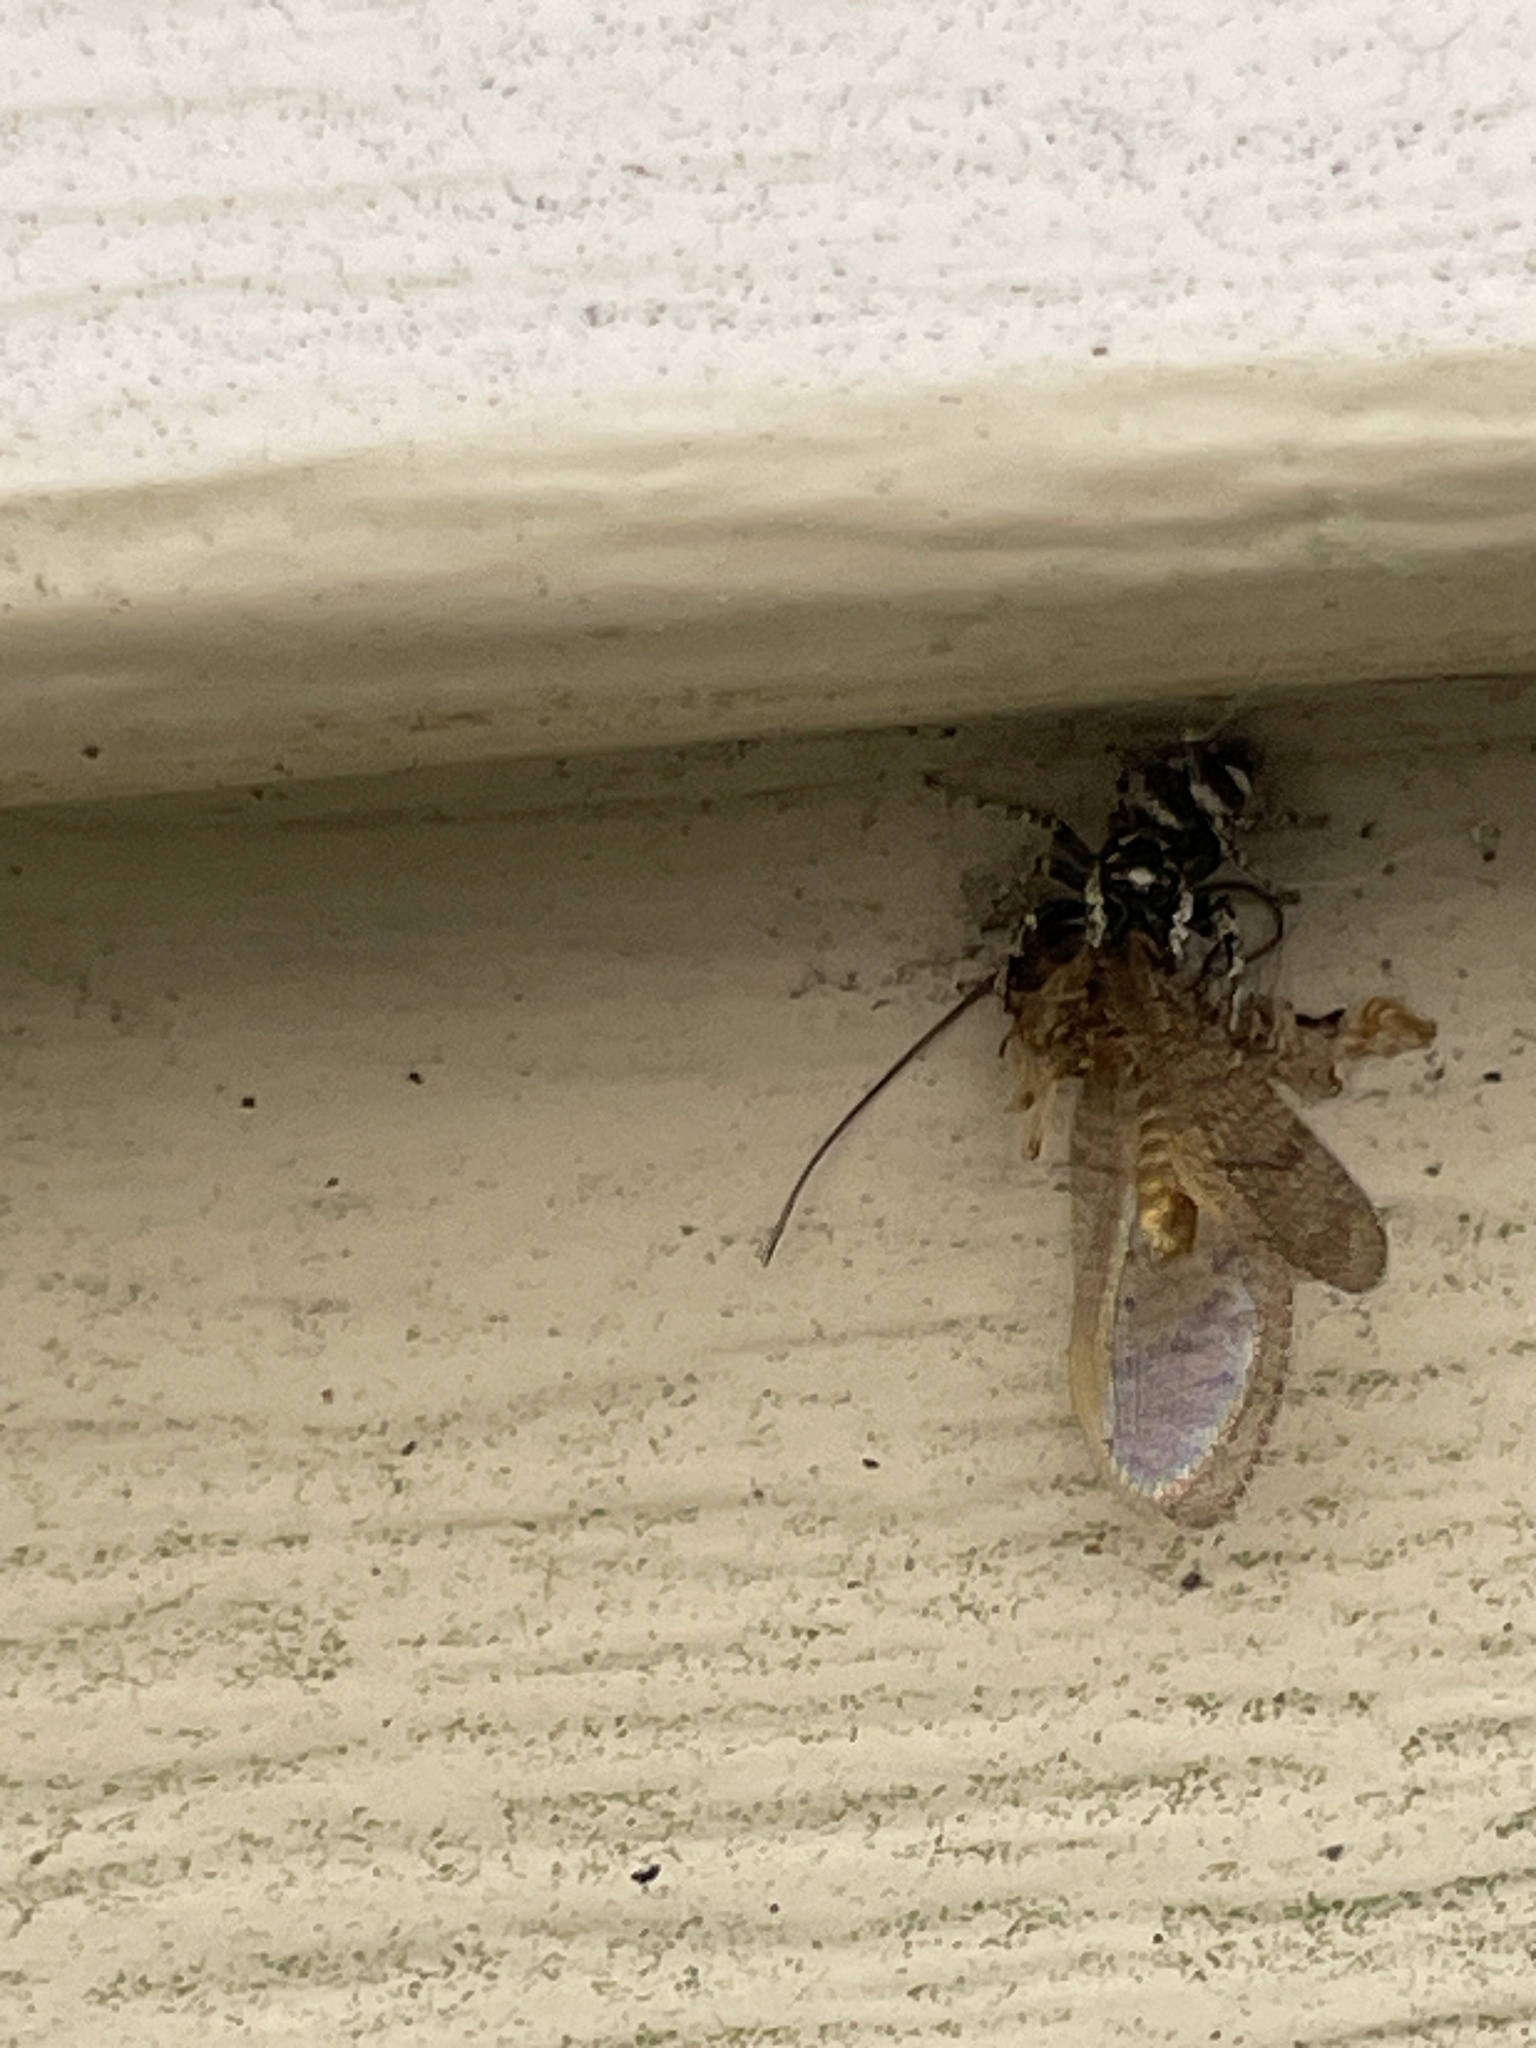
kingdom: Animalia
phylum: Arthropoda
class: Arachnida
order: Araneae
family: Salticidae
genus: Salticus
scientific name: Salticus scenicus
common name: Zebra jumper
